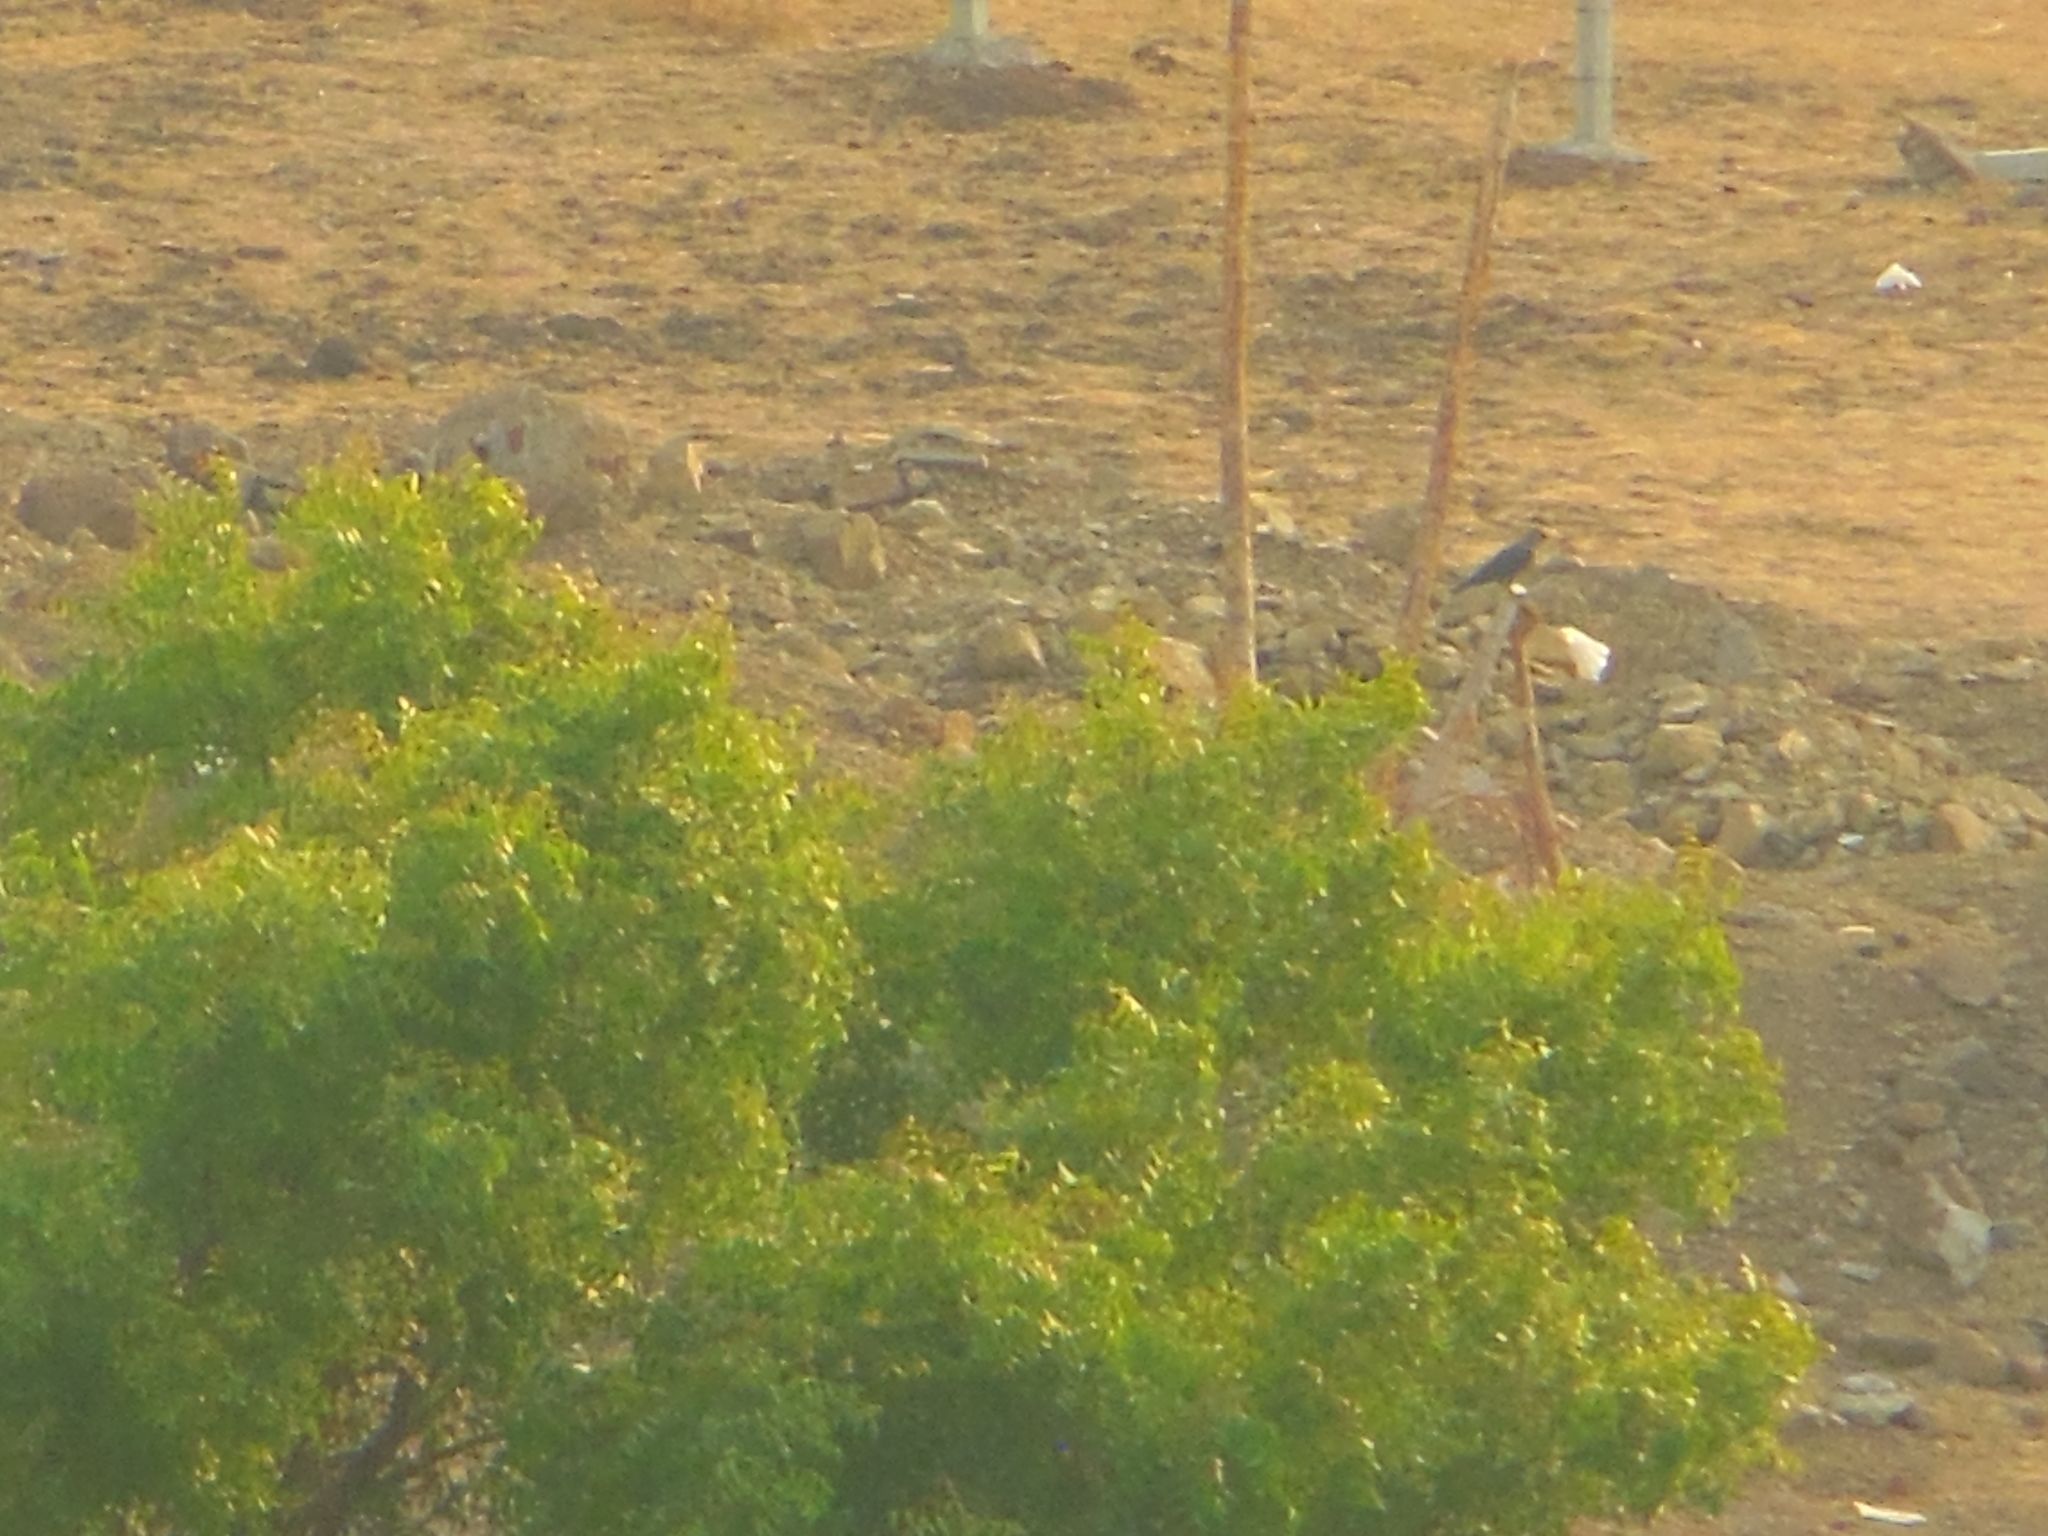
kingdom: Animalia
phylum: Chordata
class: Aves
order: Passeriformes
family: Corvidae
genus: Corvus
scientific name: Corvus splendens
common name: House crow
